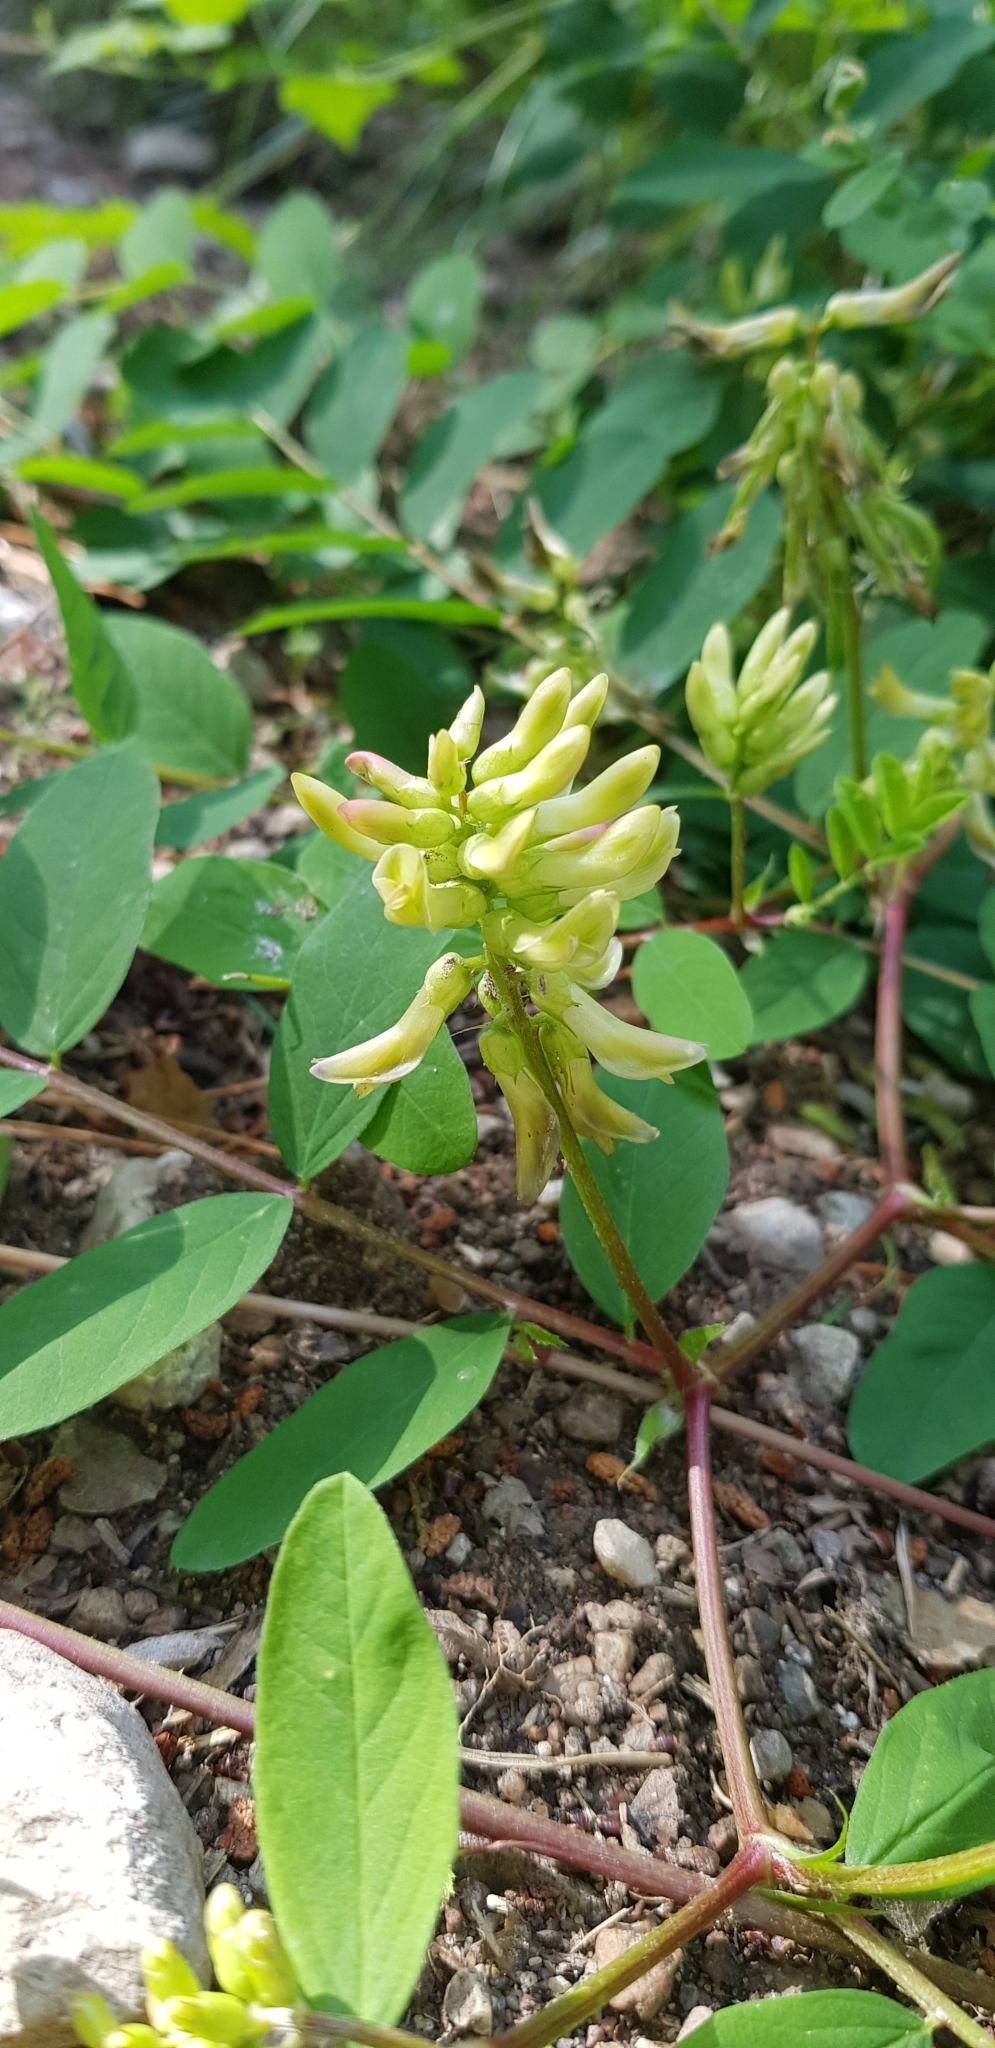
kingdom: Plantae
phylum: Tracheophyta
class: Magnoliopsida
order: Fabales
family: Fabaceae
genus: Astragalus
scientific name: Astragalus glycyphyllos
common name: Wild liquorice
